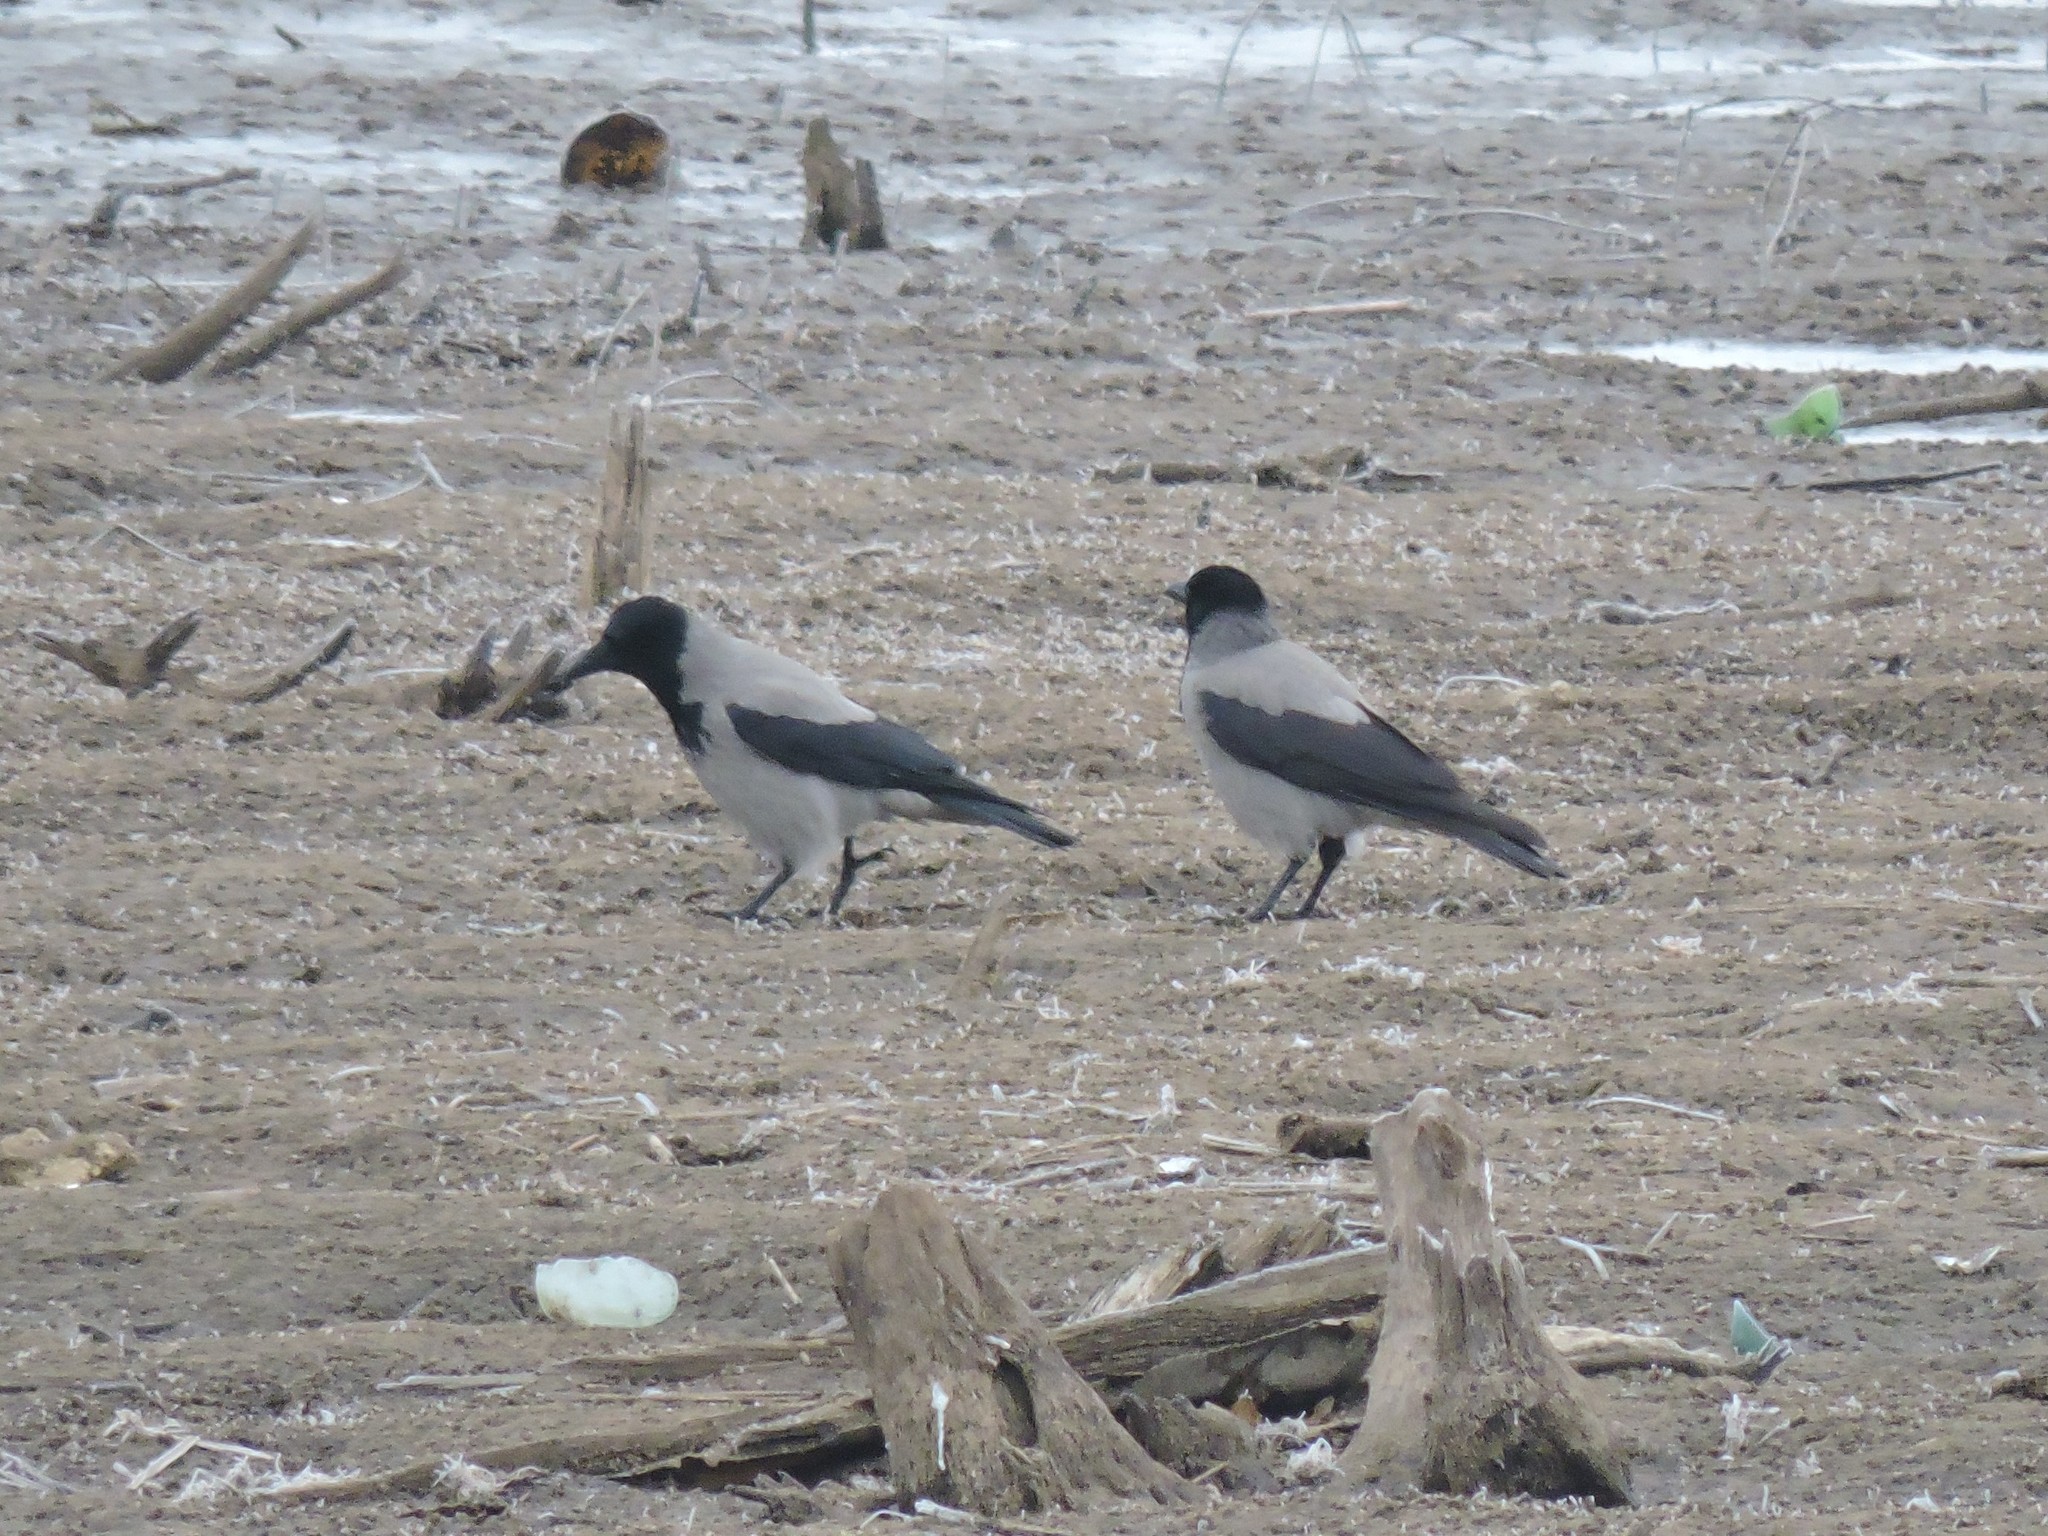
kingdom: Animalia
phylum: Chordata
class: Aves
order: Passeriformes
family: Corvidae
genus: Corvus
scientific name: Corvus cornix
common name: Hooded crow
